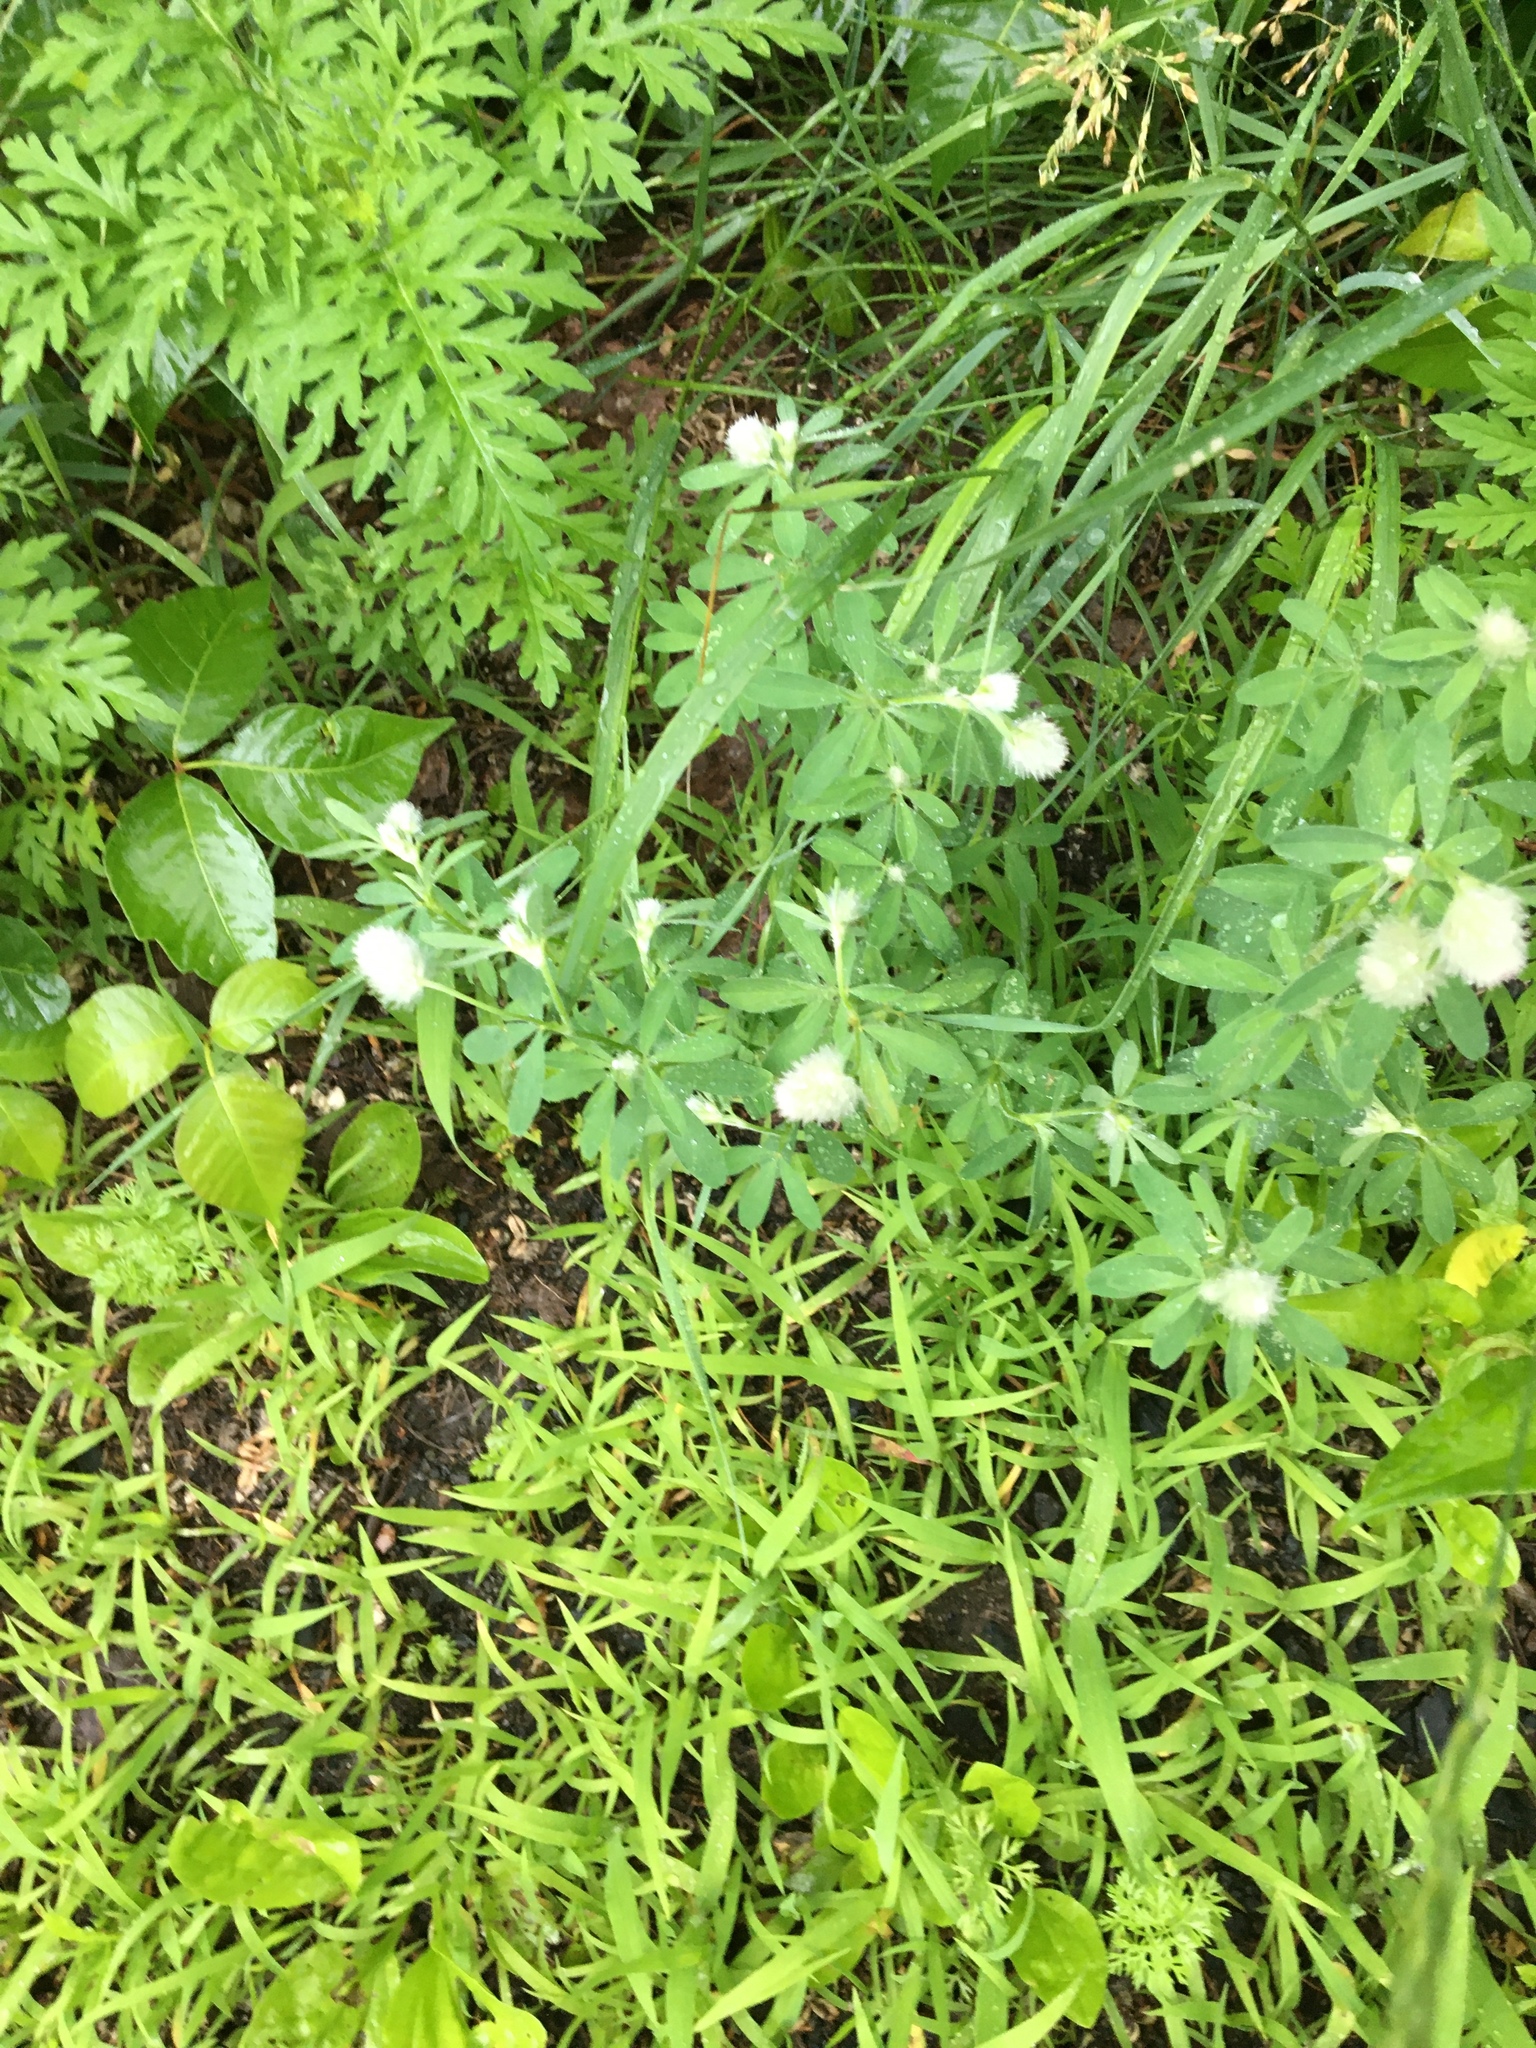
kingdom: Plantae
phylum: Tracheophyta
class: Magnoliopsida
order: Fabales
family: Fabaceae
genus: Trifolium
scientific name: Trifolium arvense
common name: Hare's-foot clover
